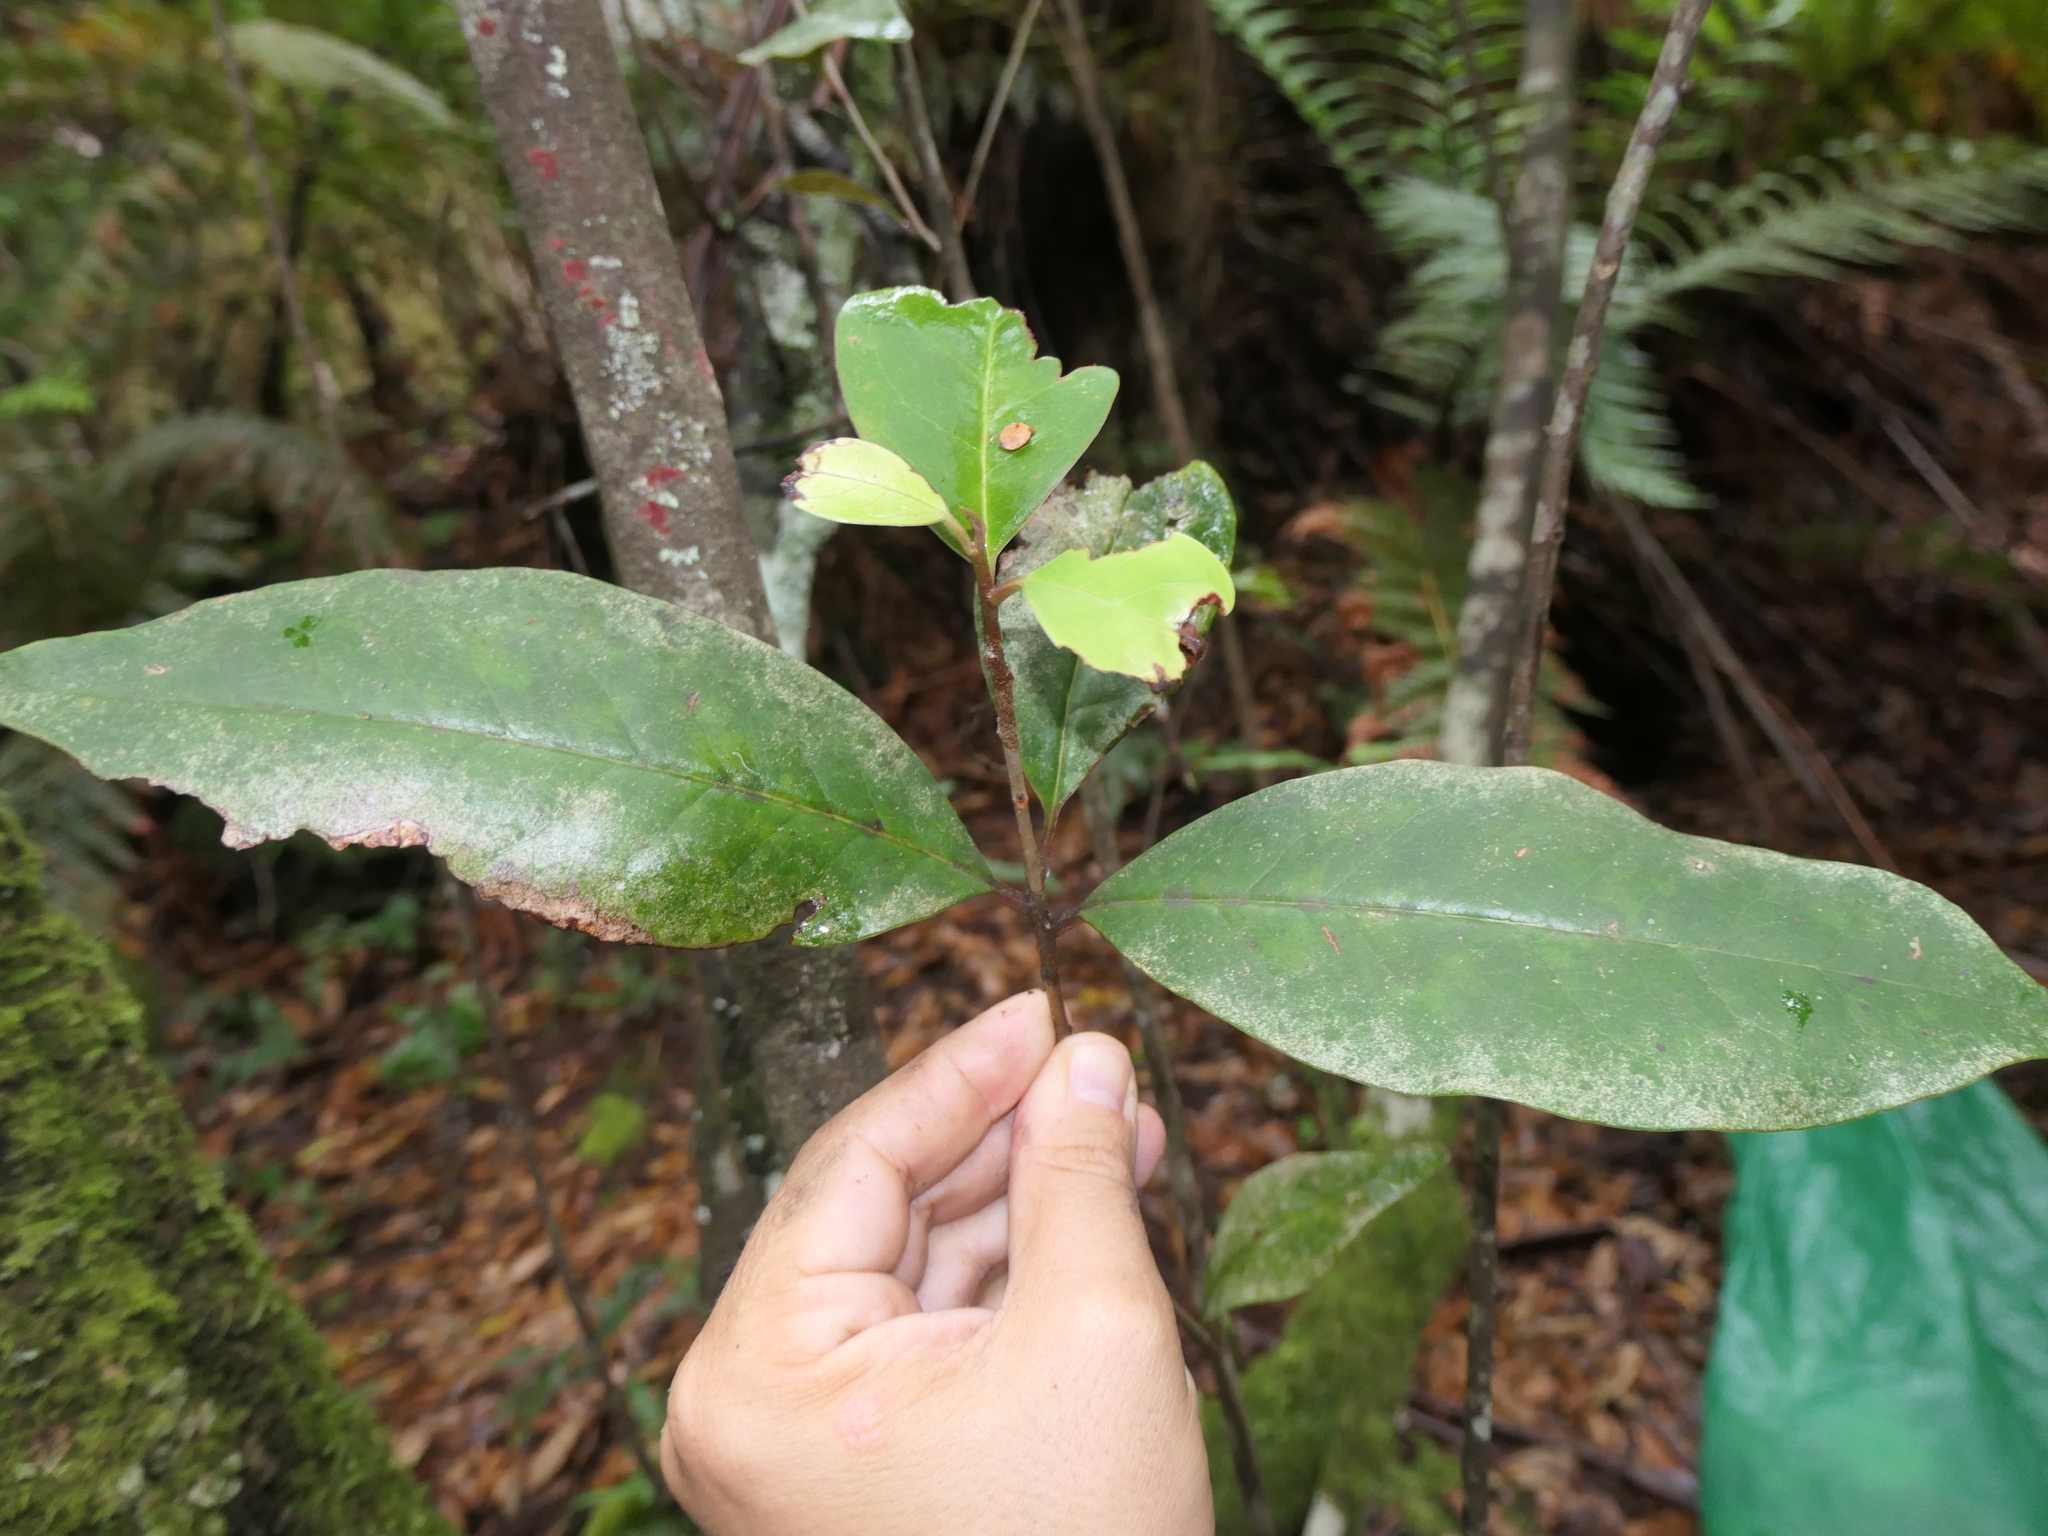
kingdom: Plantae
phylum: Tracheophyta
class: Magnoliopsida
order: Paracryphiales
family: Paracryphiaceae
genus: Quintinia
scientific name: Quintinia sieberi
